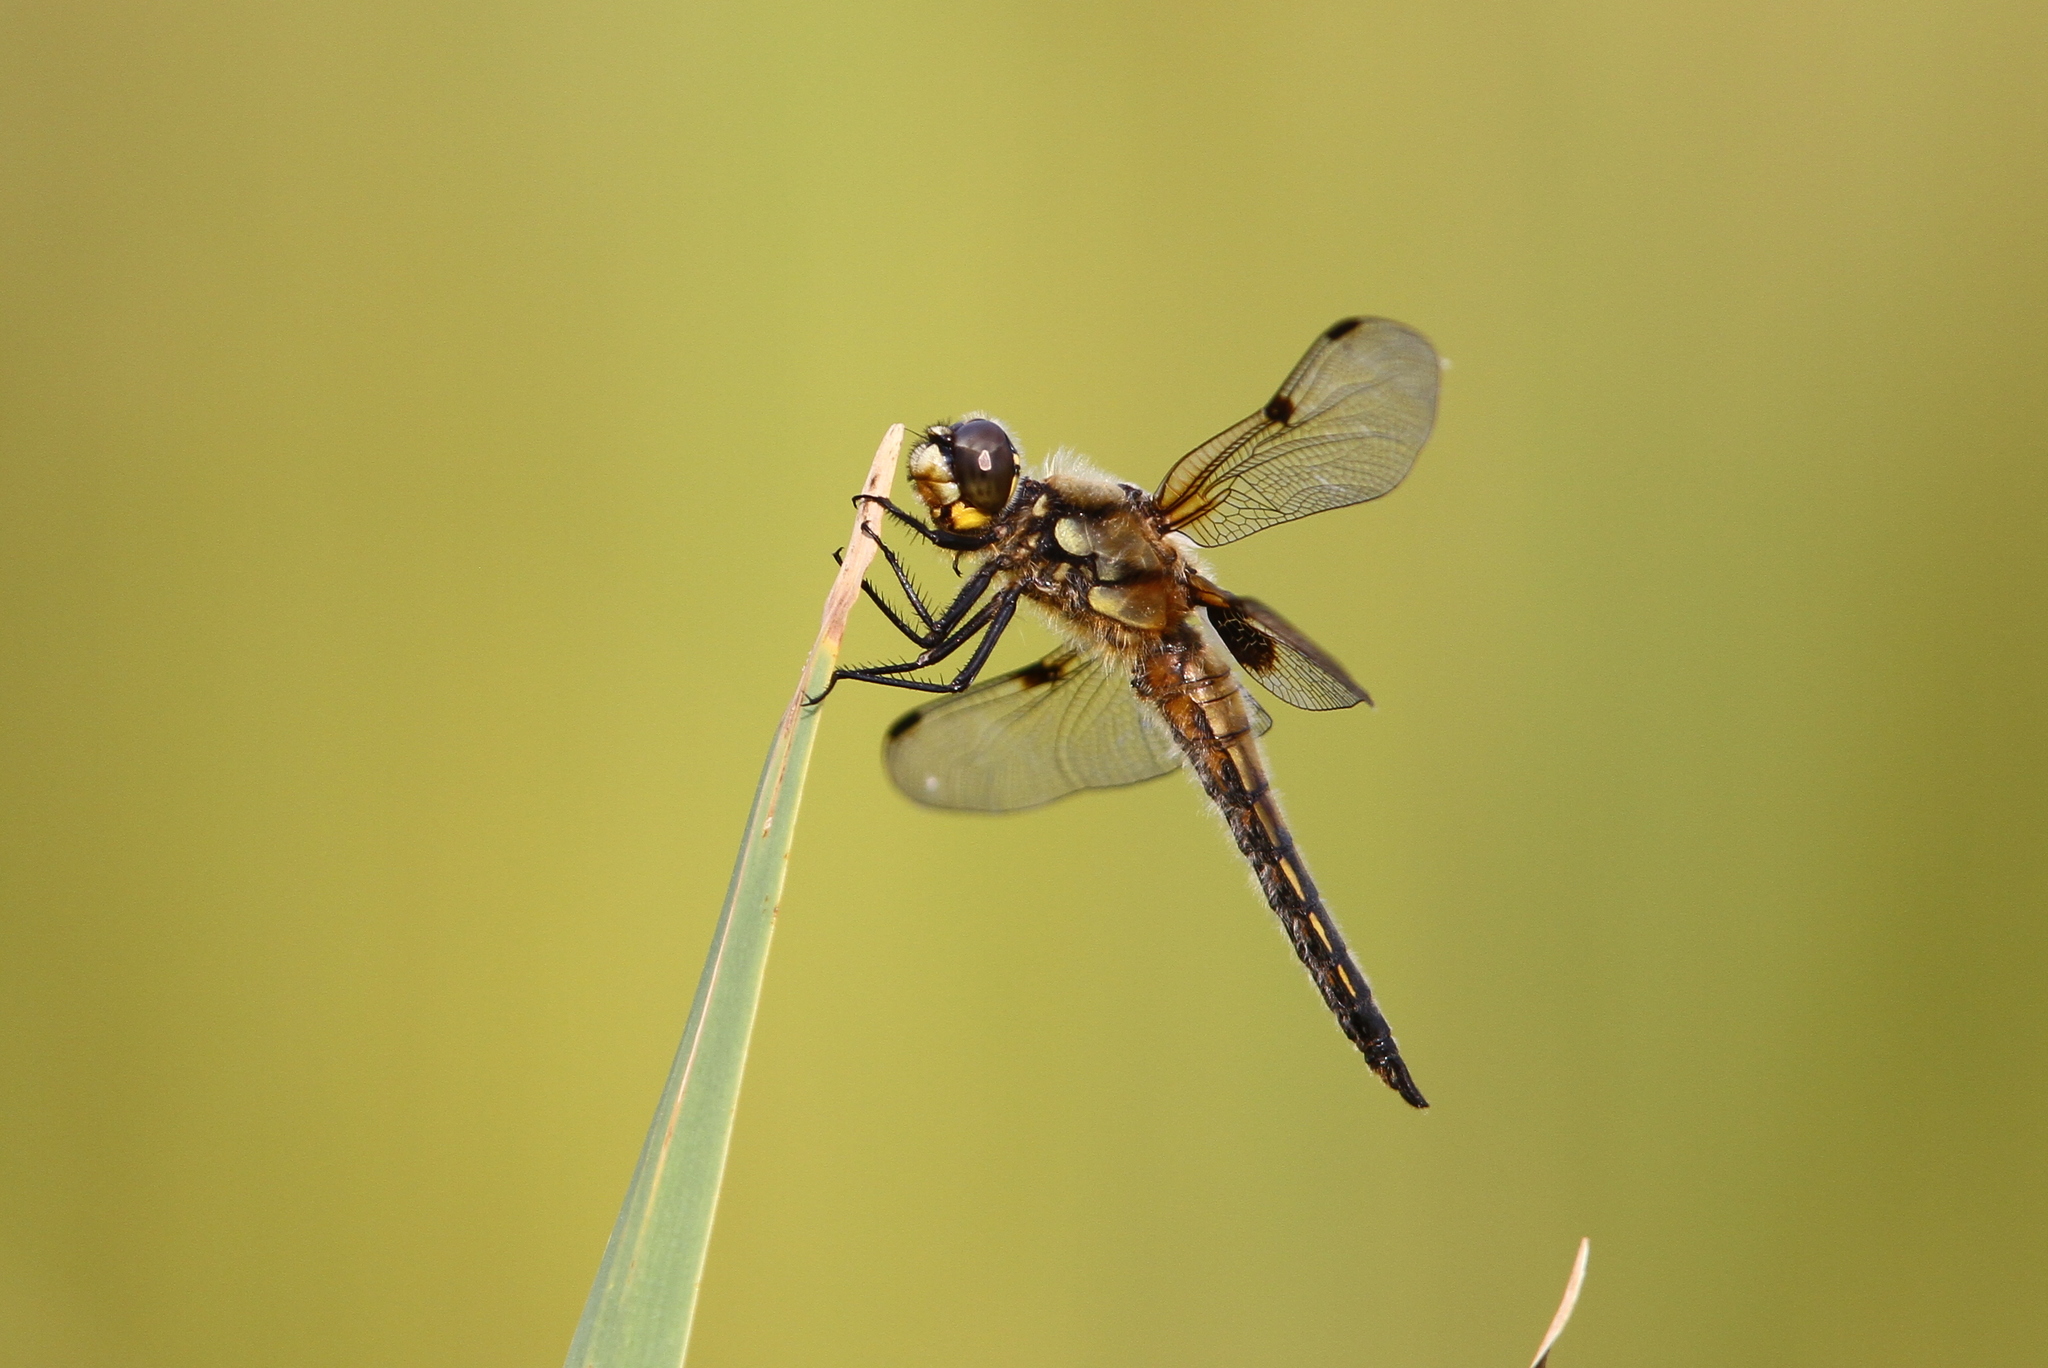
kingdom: Animalia
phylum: Arthropoda
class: Insecta
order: Odonata
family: Libellulidae
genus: Libellula
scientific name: Libellula quadrimaculata
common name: Four-spotted chaser
